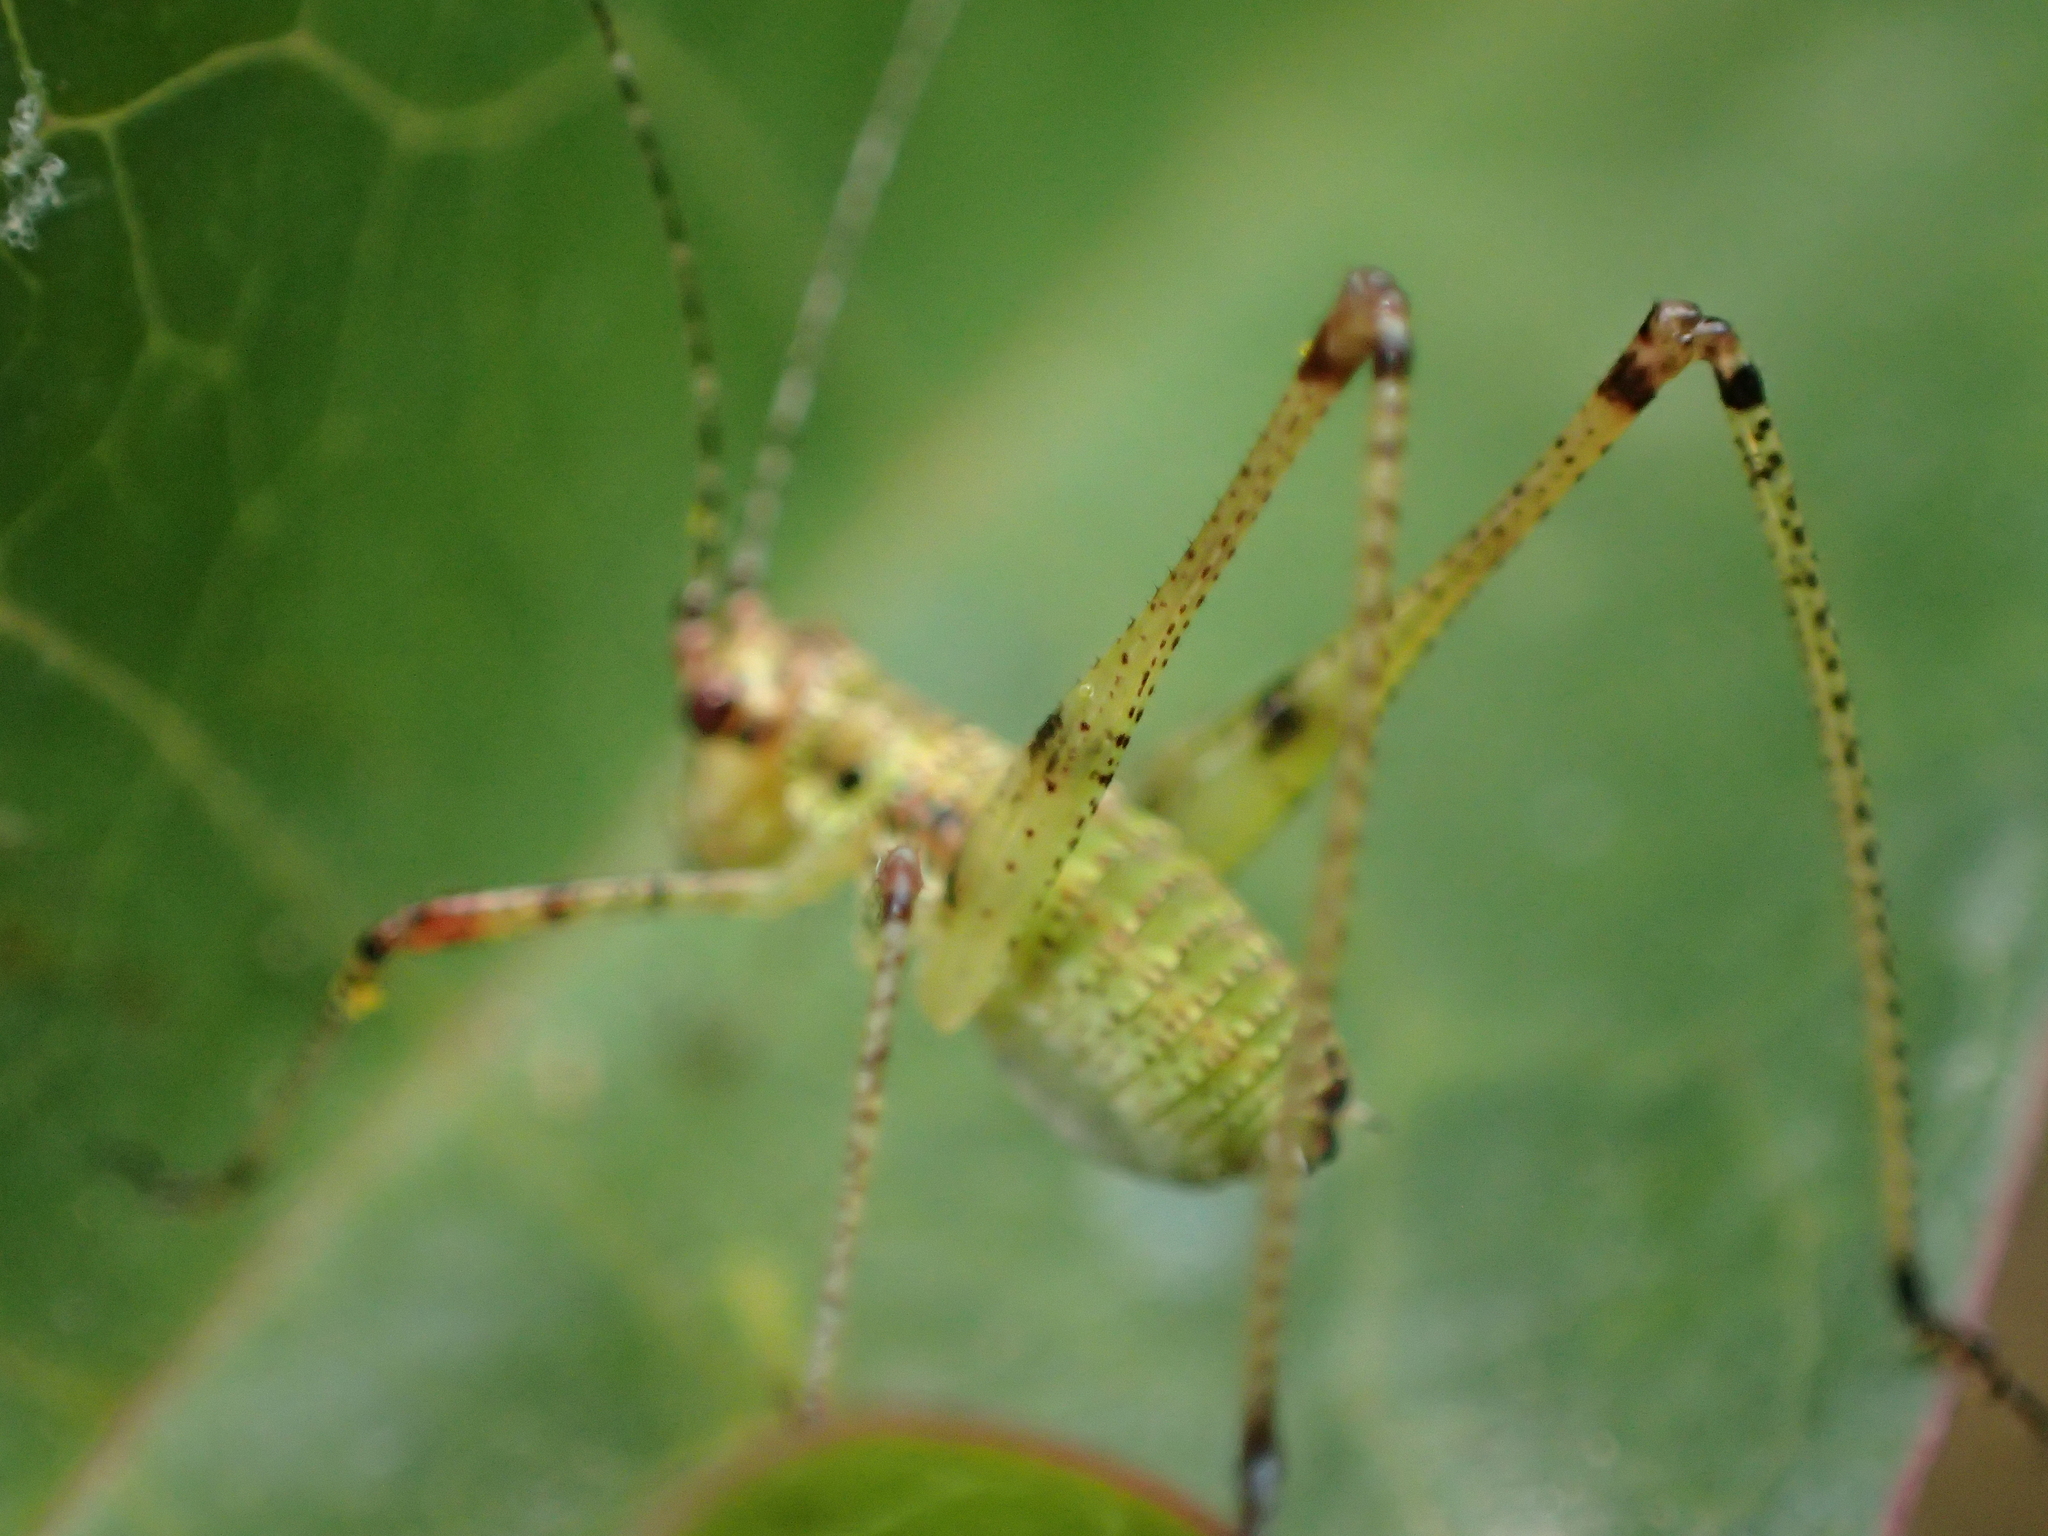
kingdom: Animalia
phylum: Arthropoda
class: Insecta
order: Orthoptera
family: Tettigoniidae
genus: Phaneroptera
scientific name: Phaneroptera nana
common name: Southern sickle bush-cricket
